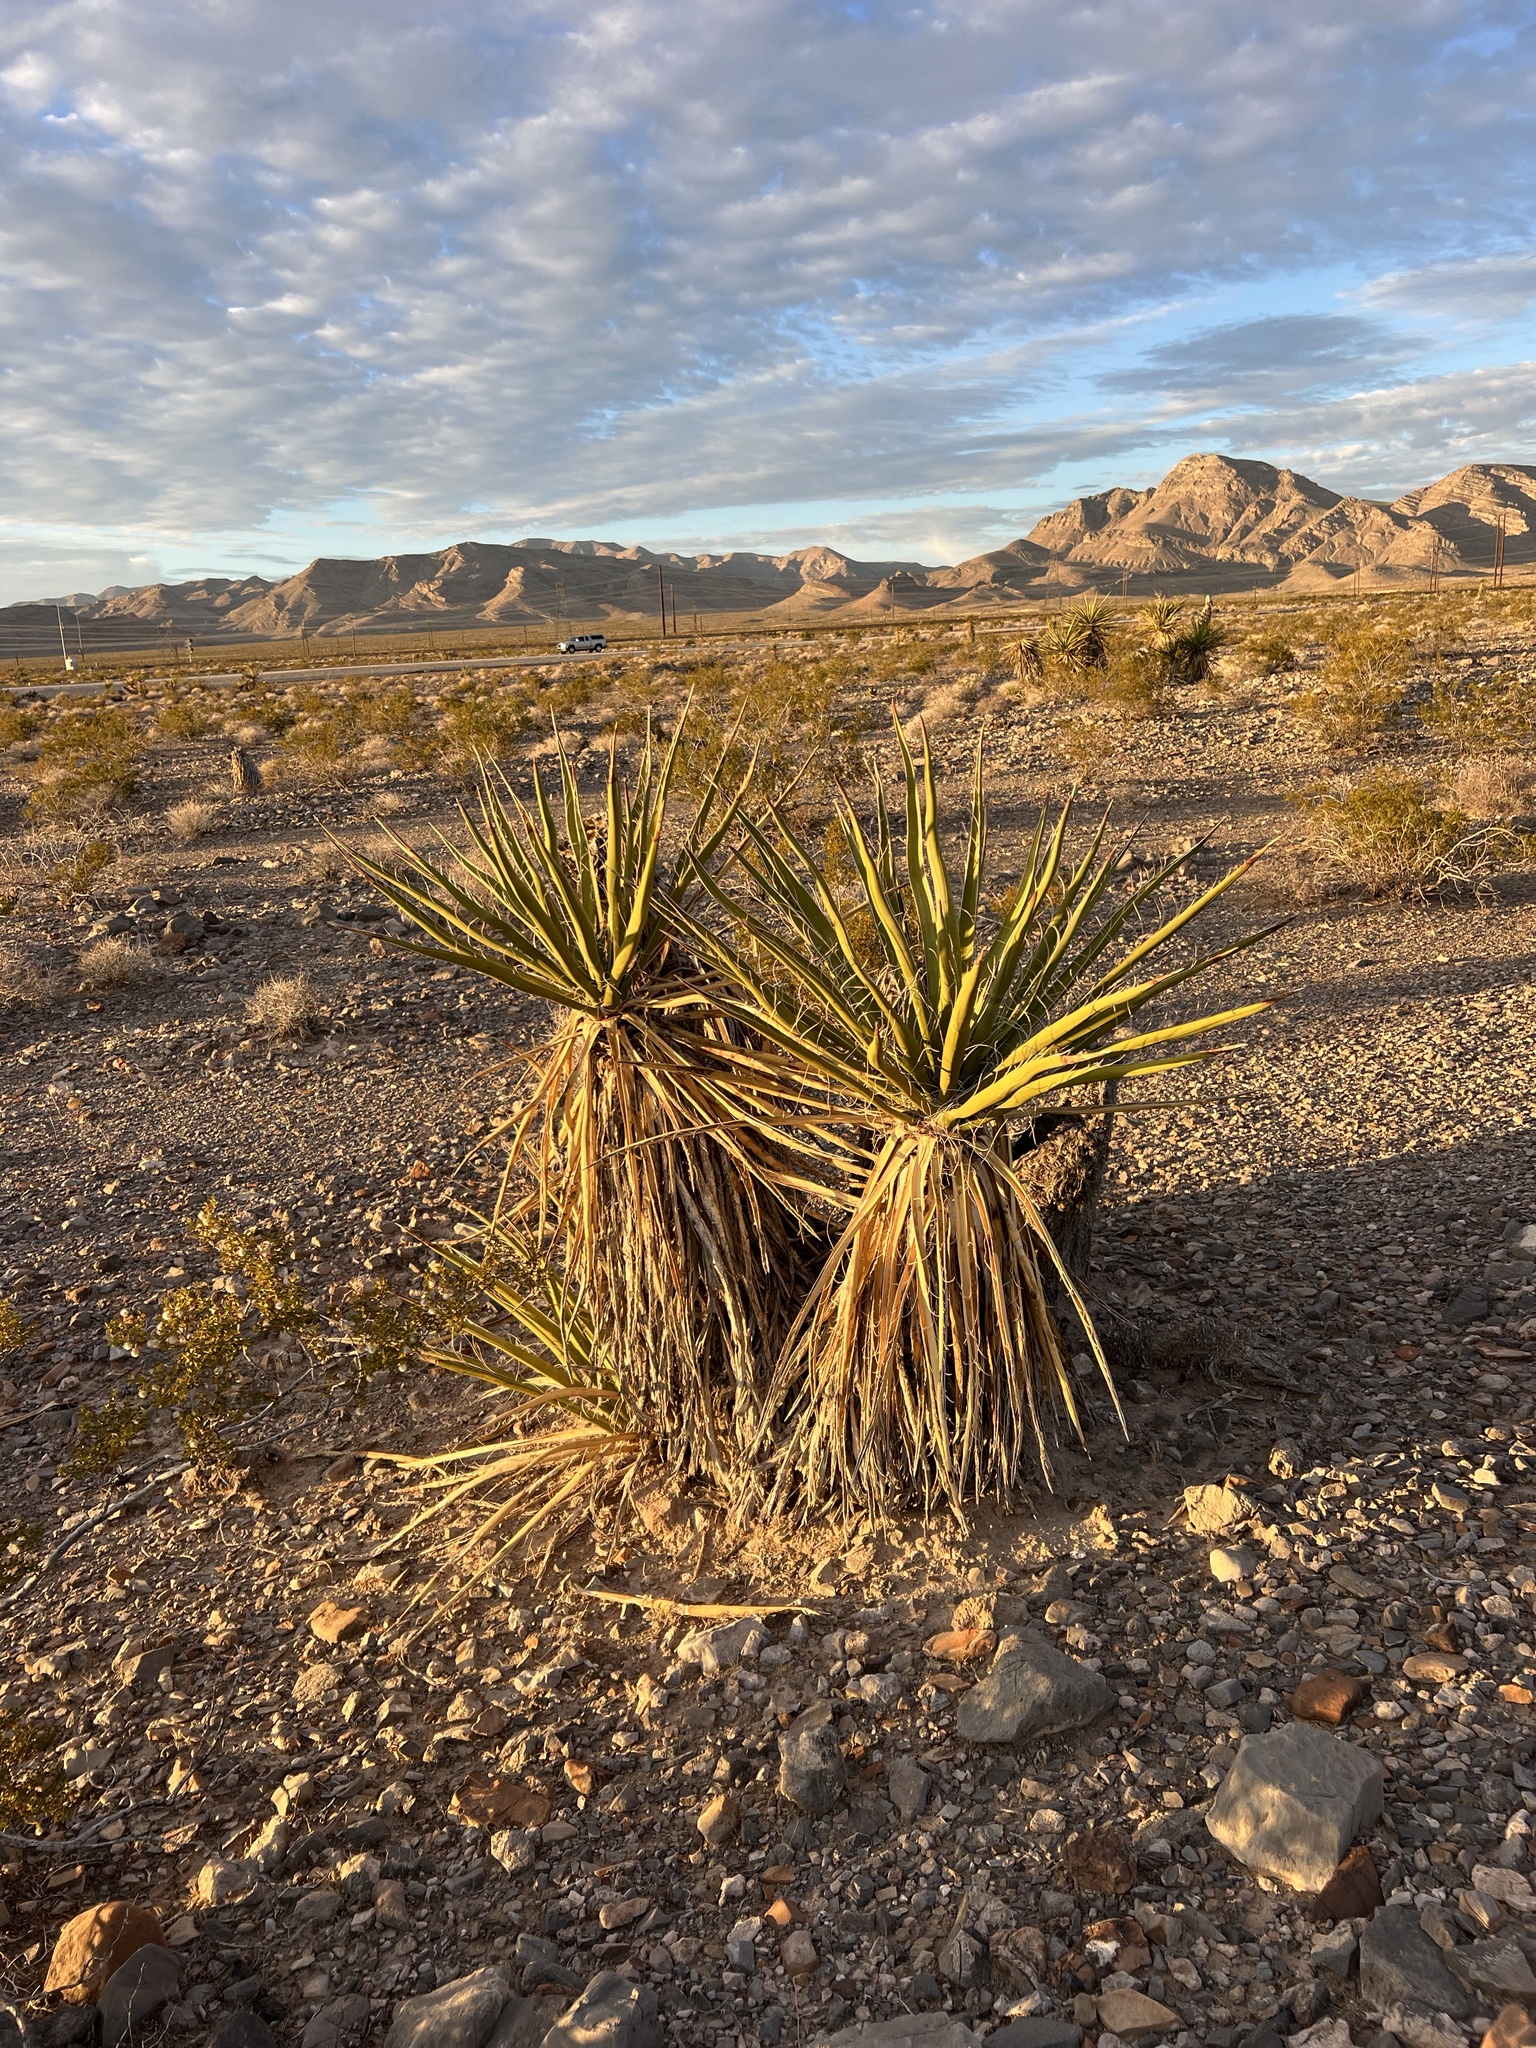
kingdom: Plantae
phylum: Tracheophyta
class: Liliopsida
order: Asparagales
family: Asparagaceae
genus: Yucca
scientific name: Yucca schidigera
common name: Mojave yucca
